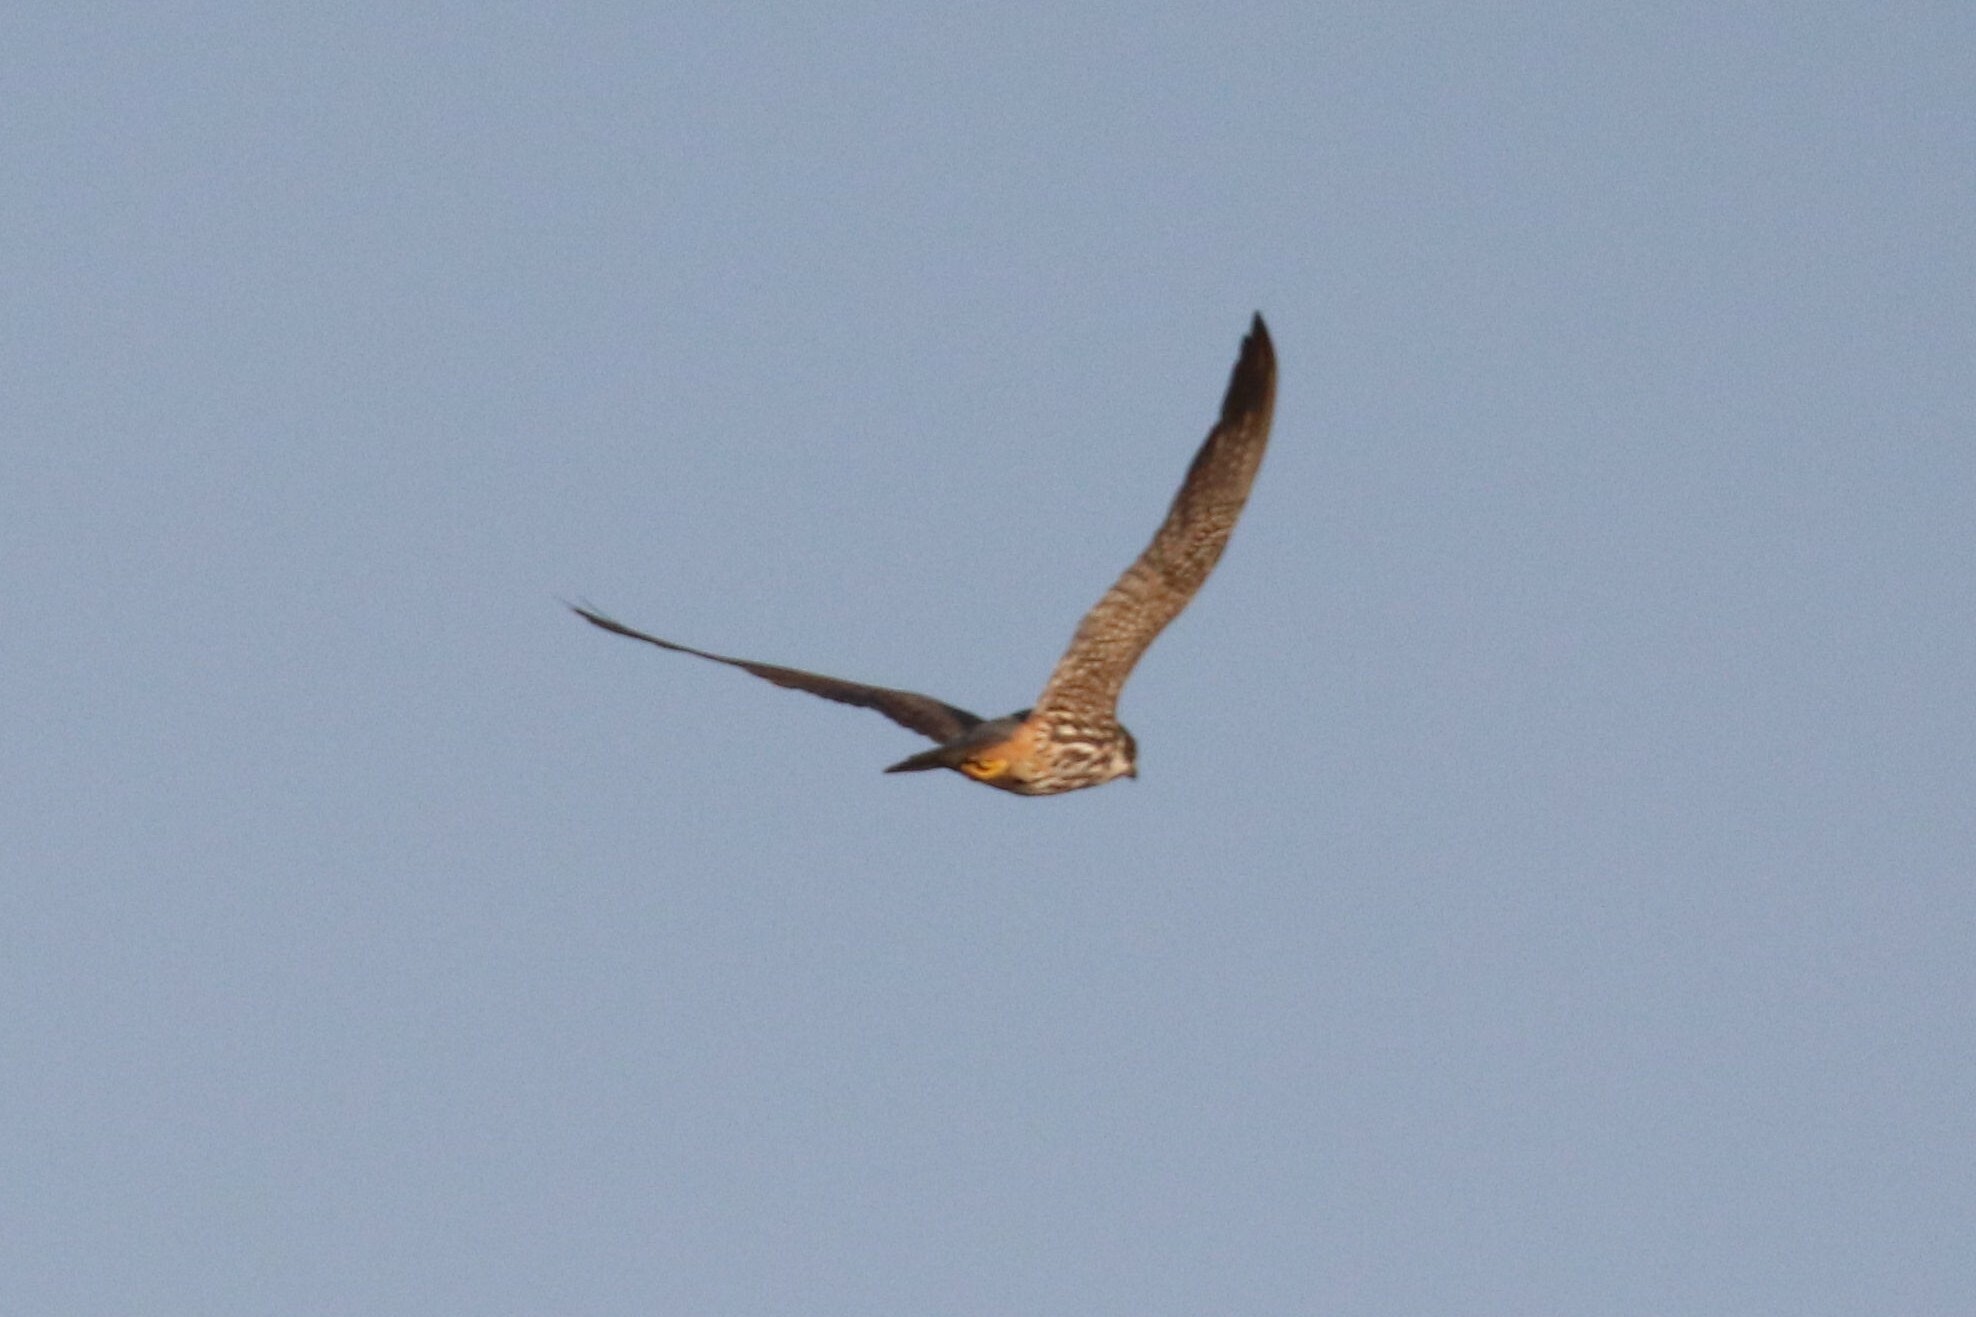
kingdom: Animalia
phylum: Chordata
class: Aves
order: Falconiformes
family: Falconidae
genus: Falco
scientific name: Falco subbuteo
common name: Eurasian hobby
